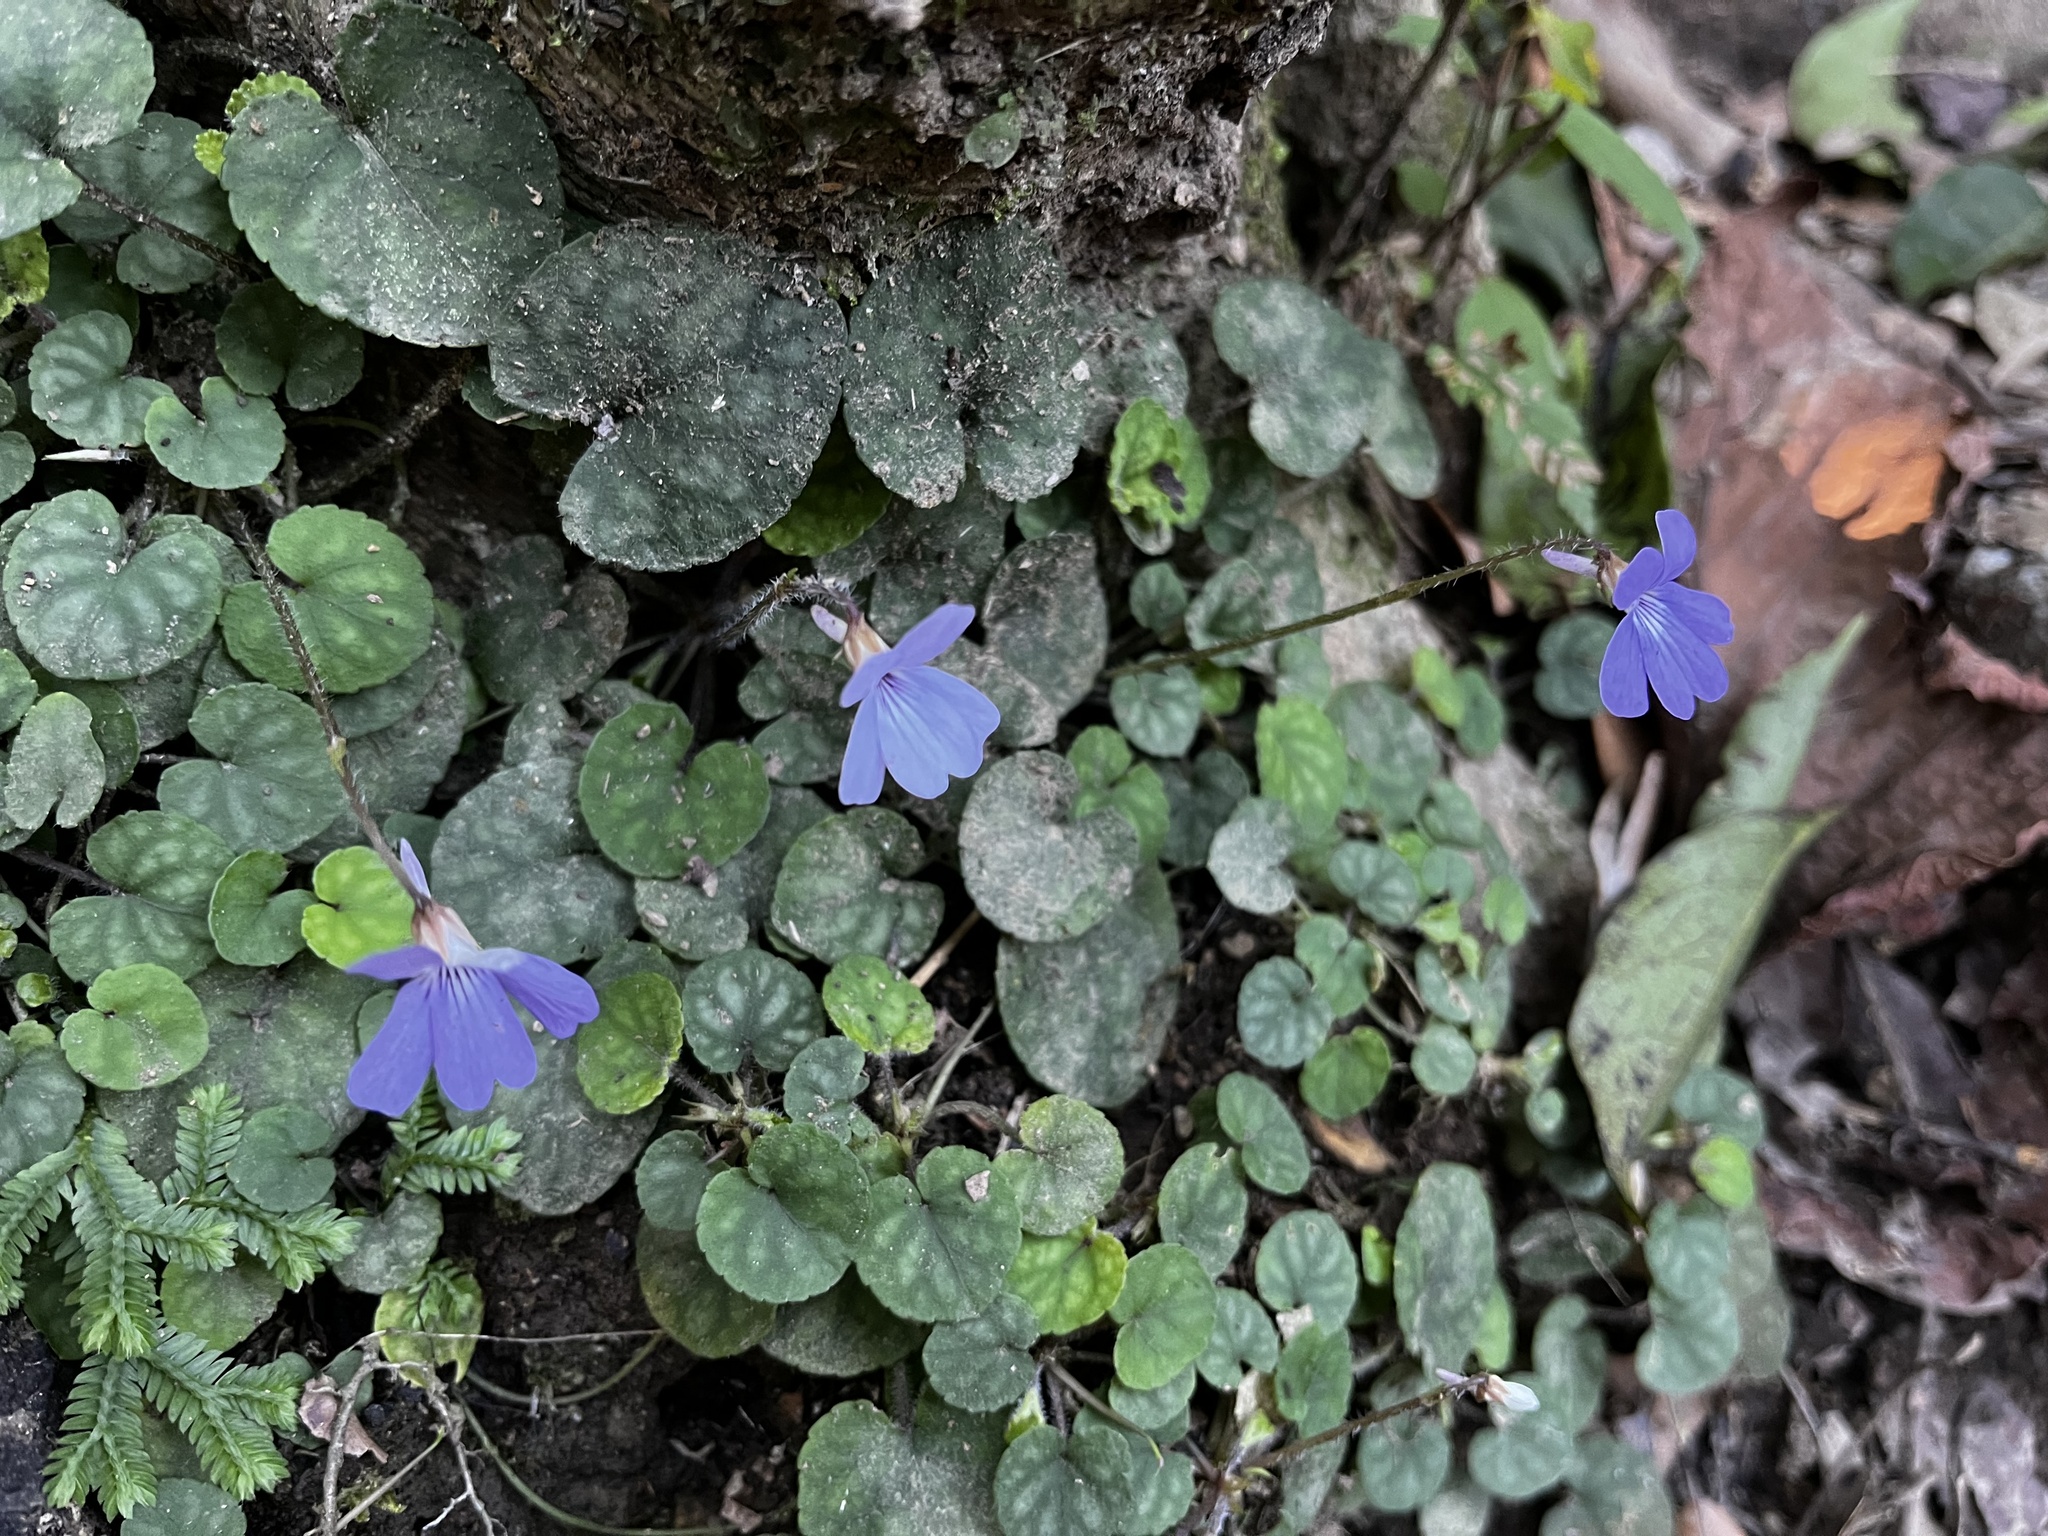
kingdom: Plantae
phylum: Tracheophyta
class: Magnoliopsida
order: Malpighiales
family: Violaceae
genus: Viola
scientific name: Viola formosana
